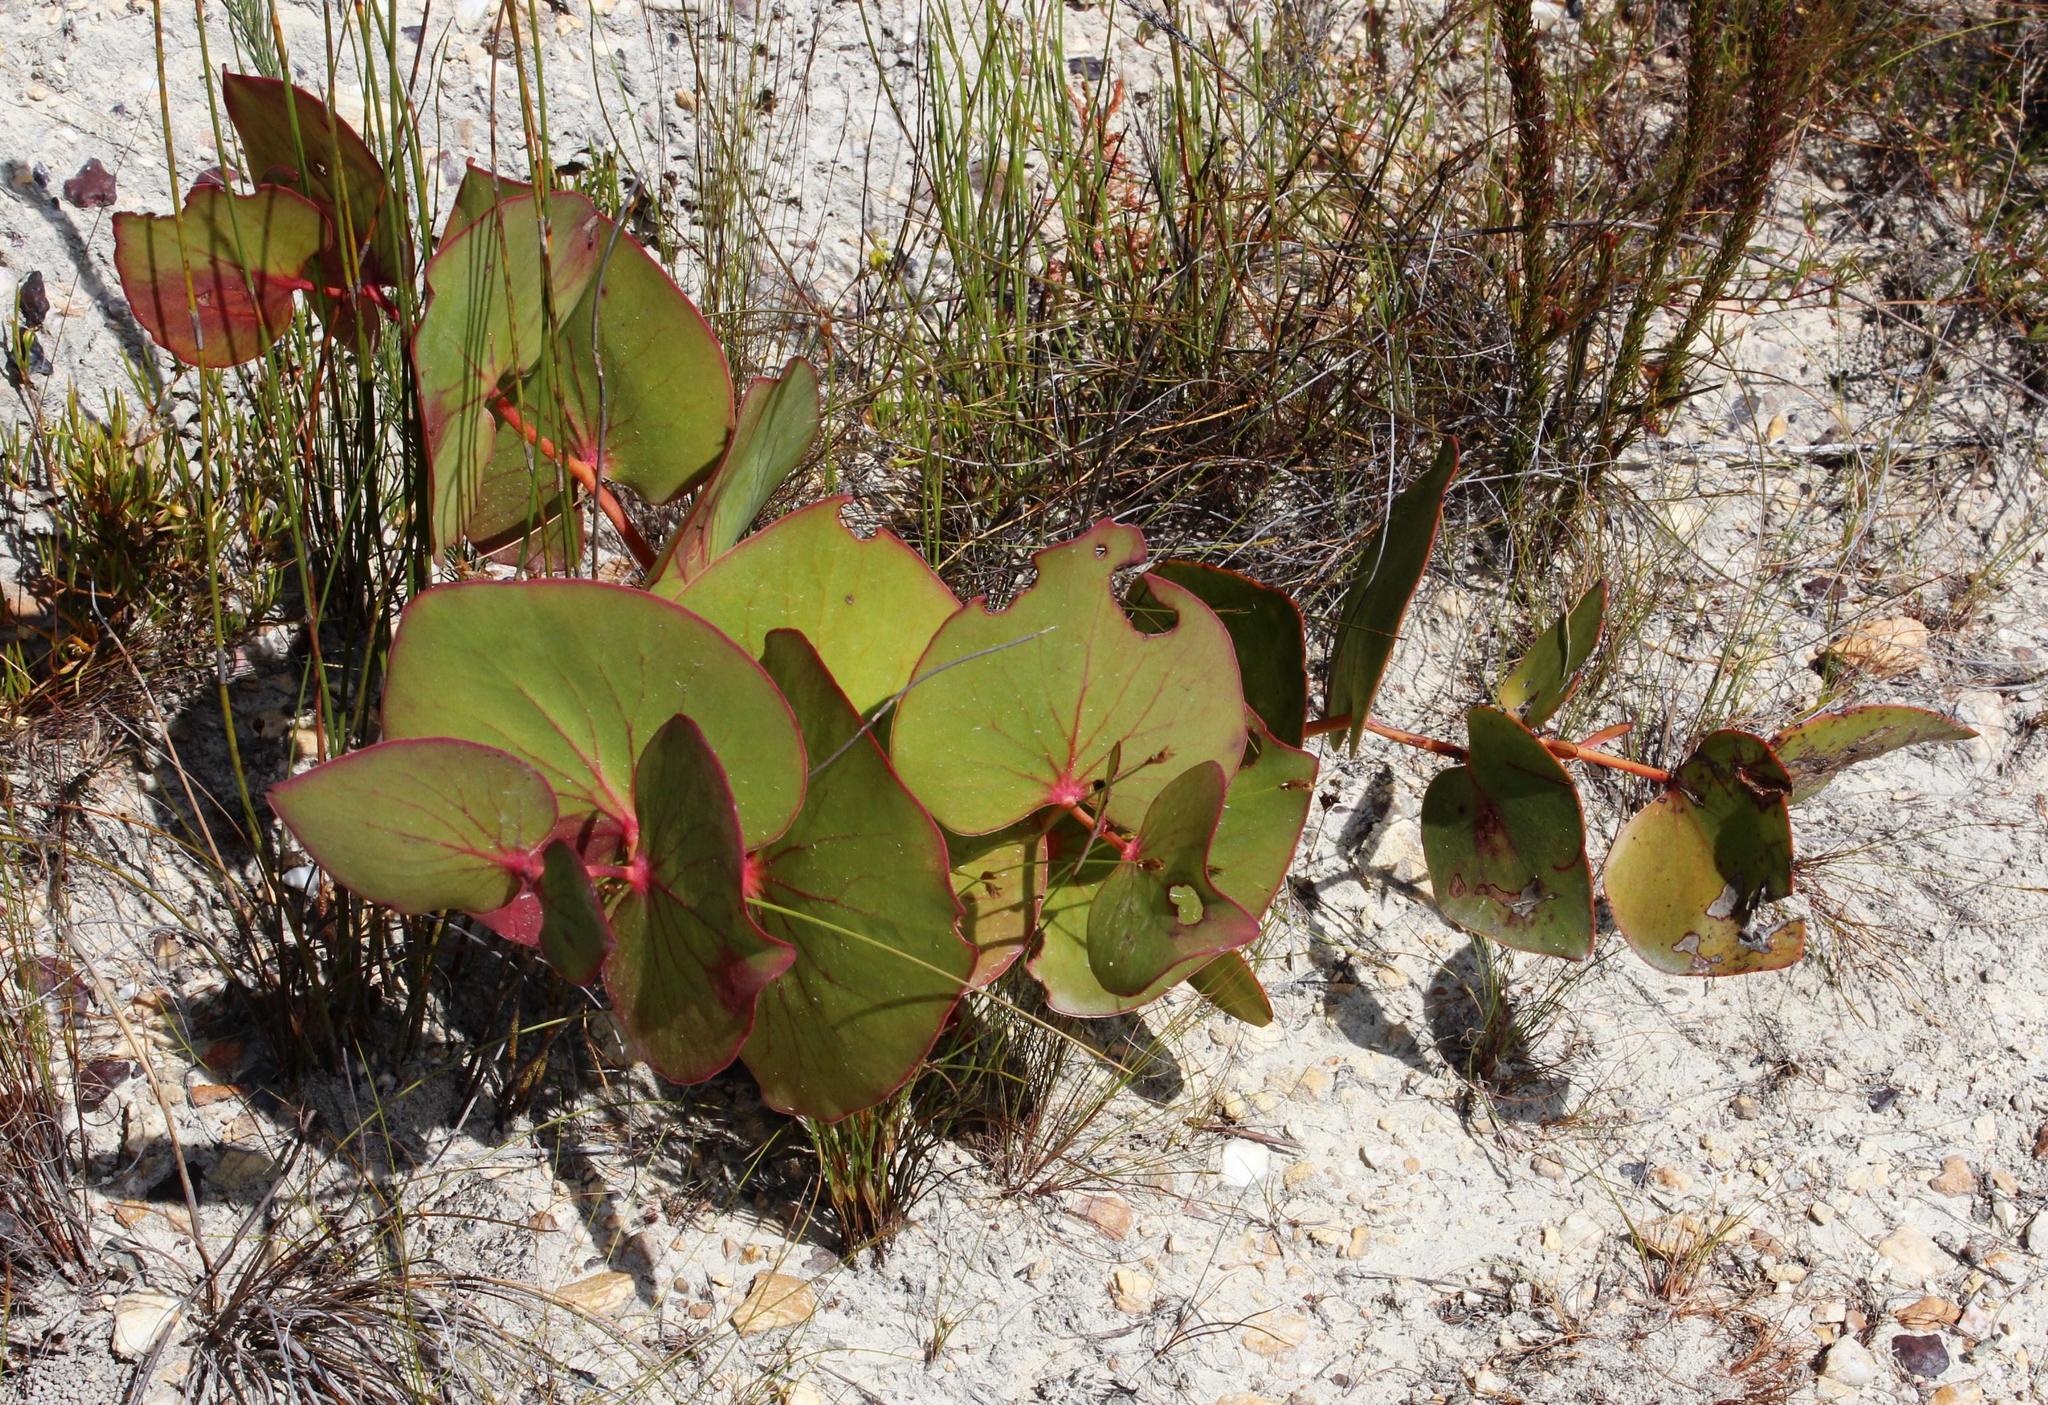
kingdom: Plantae
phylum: Tracheophyta
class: Magnoliopsida
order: Proteales
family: Proteaceae
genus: Protea
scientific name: Protea cordata
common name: Heart-leaf sugarbush
